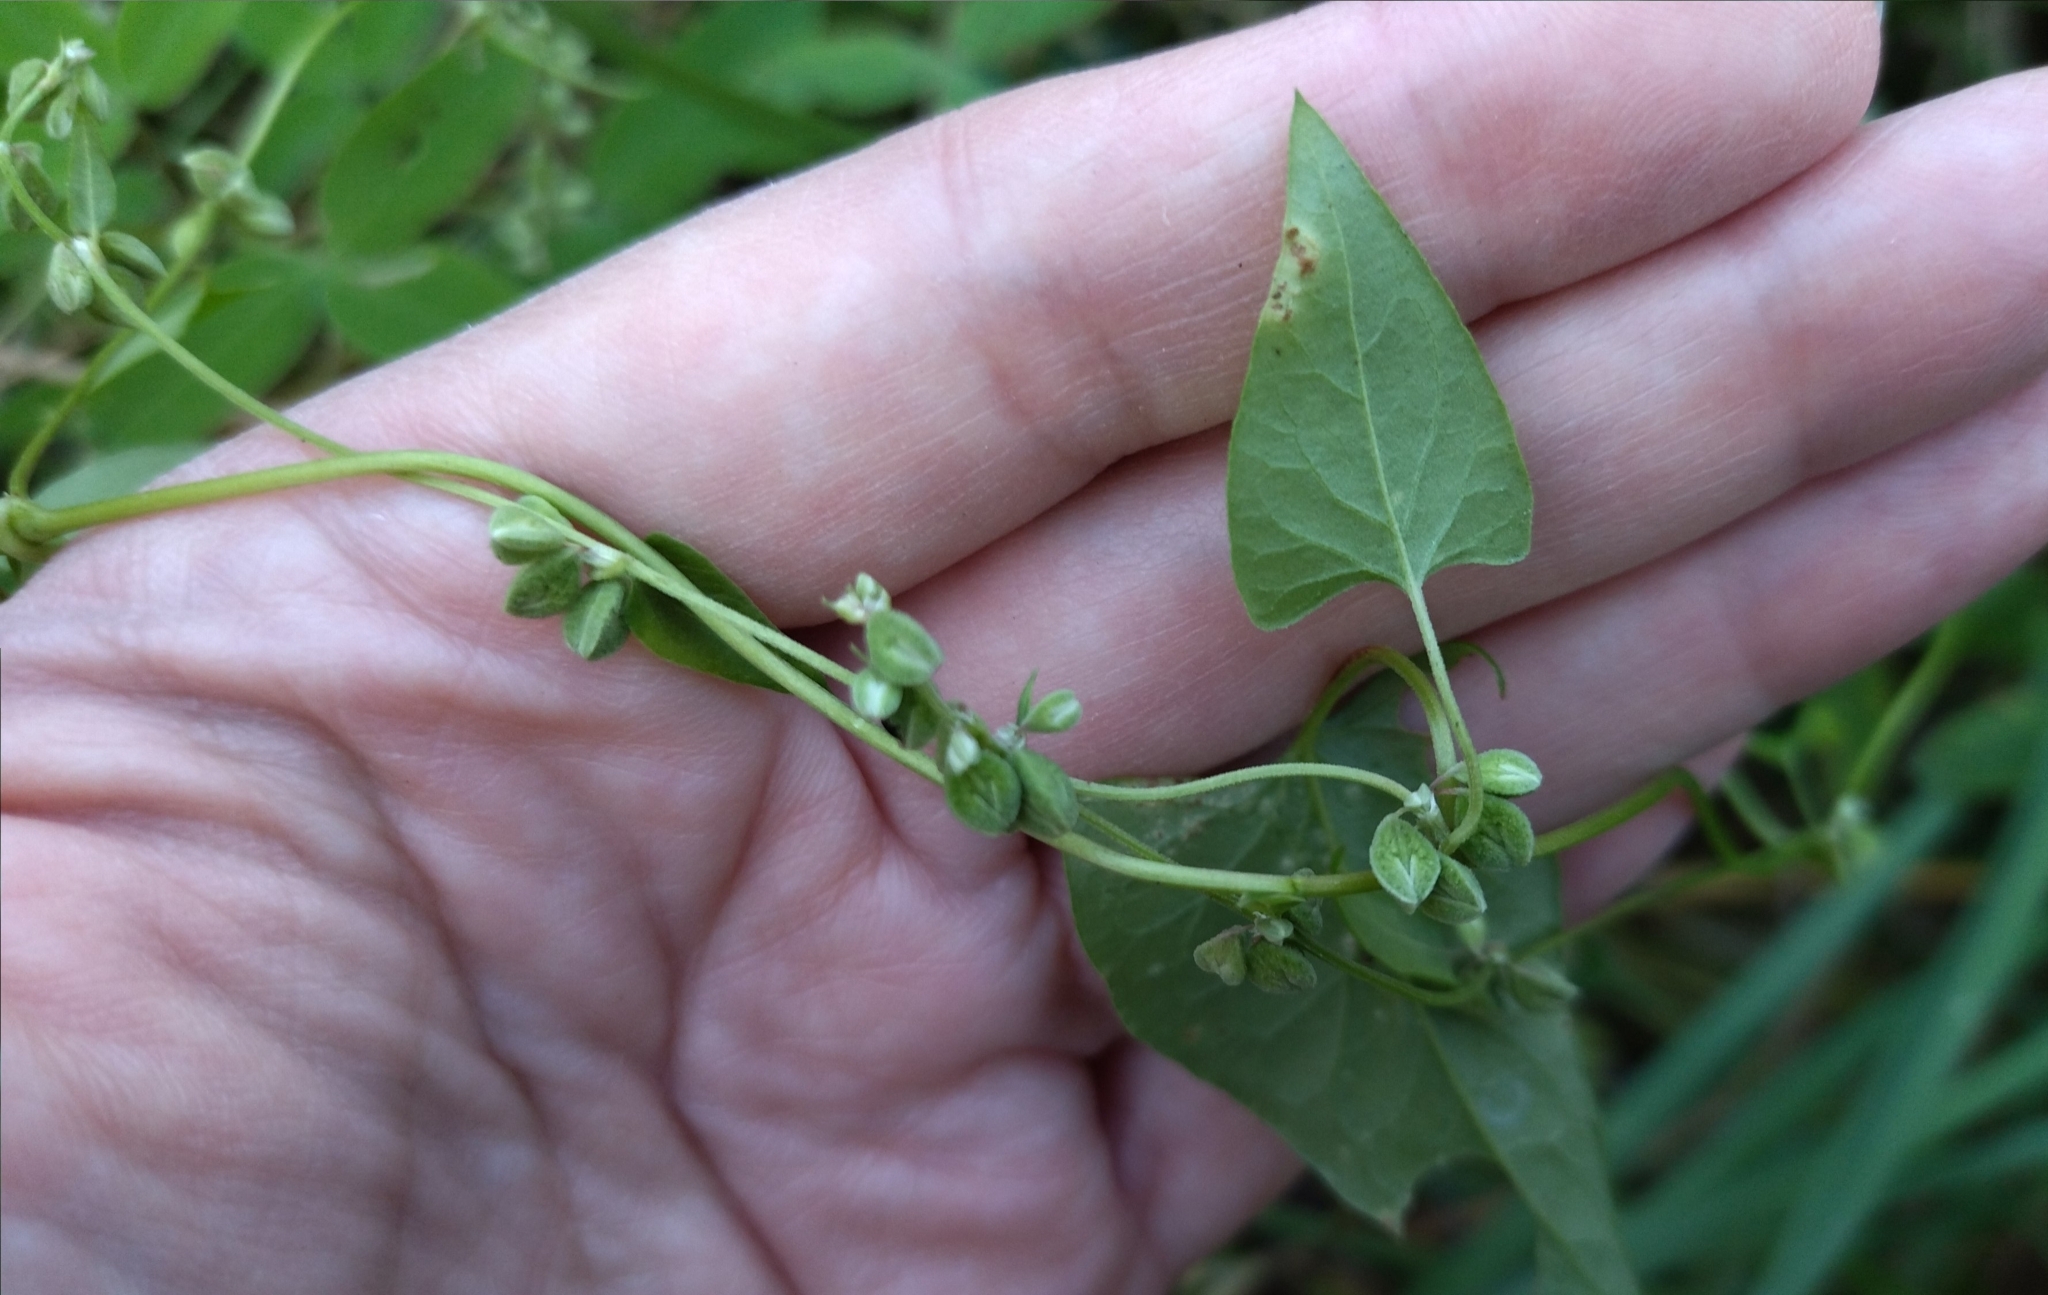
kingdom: Plantae
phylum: Tracheophyta
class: Magnoliopsida
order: Caryophyllales
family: Polygonaceae
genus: Fallopia
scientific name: Fallopia dumetorum
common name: Copse-bindweed
